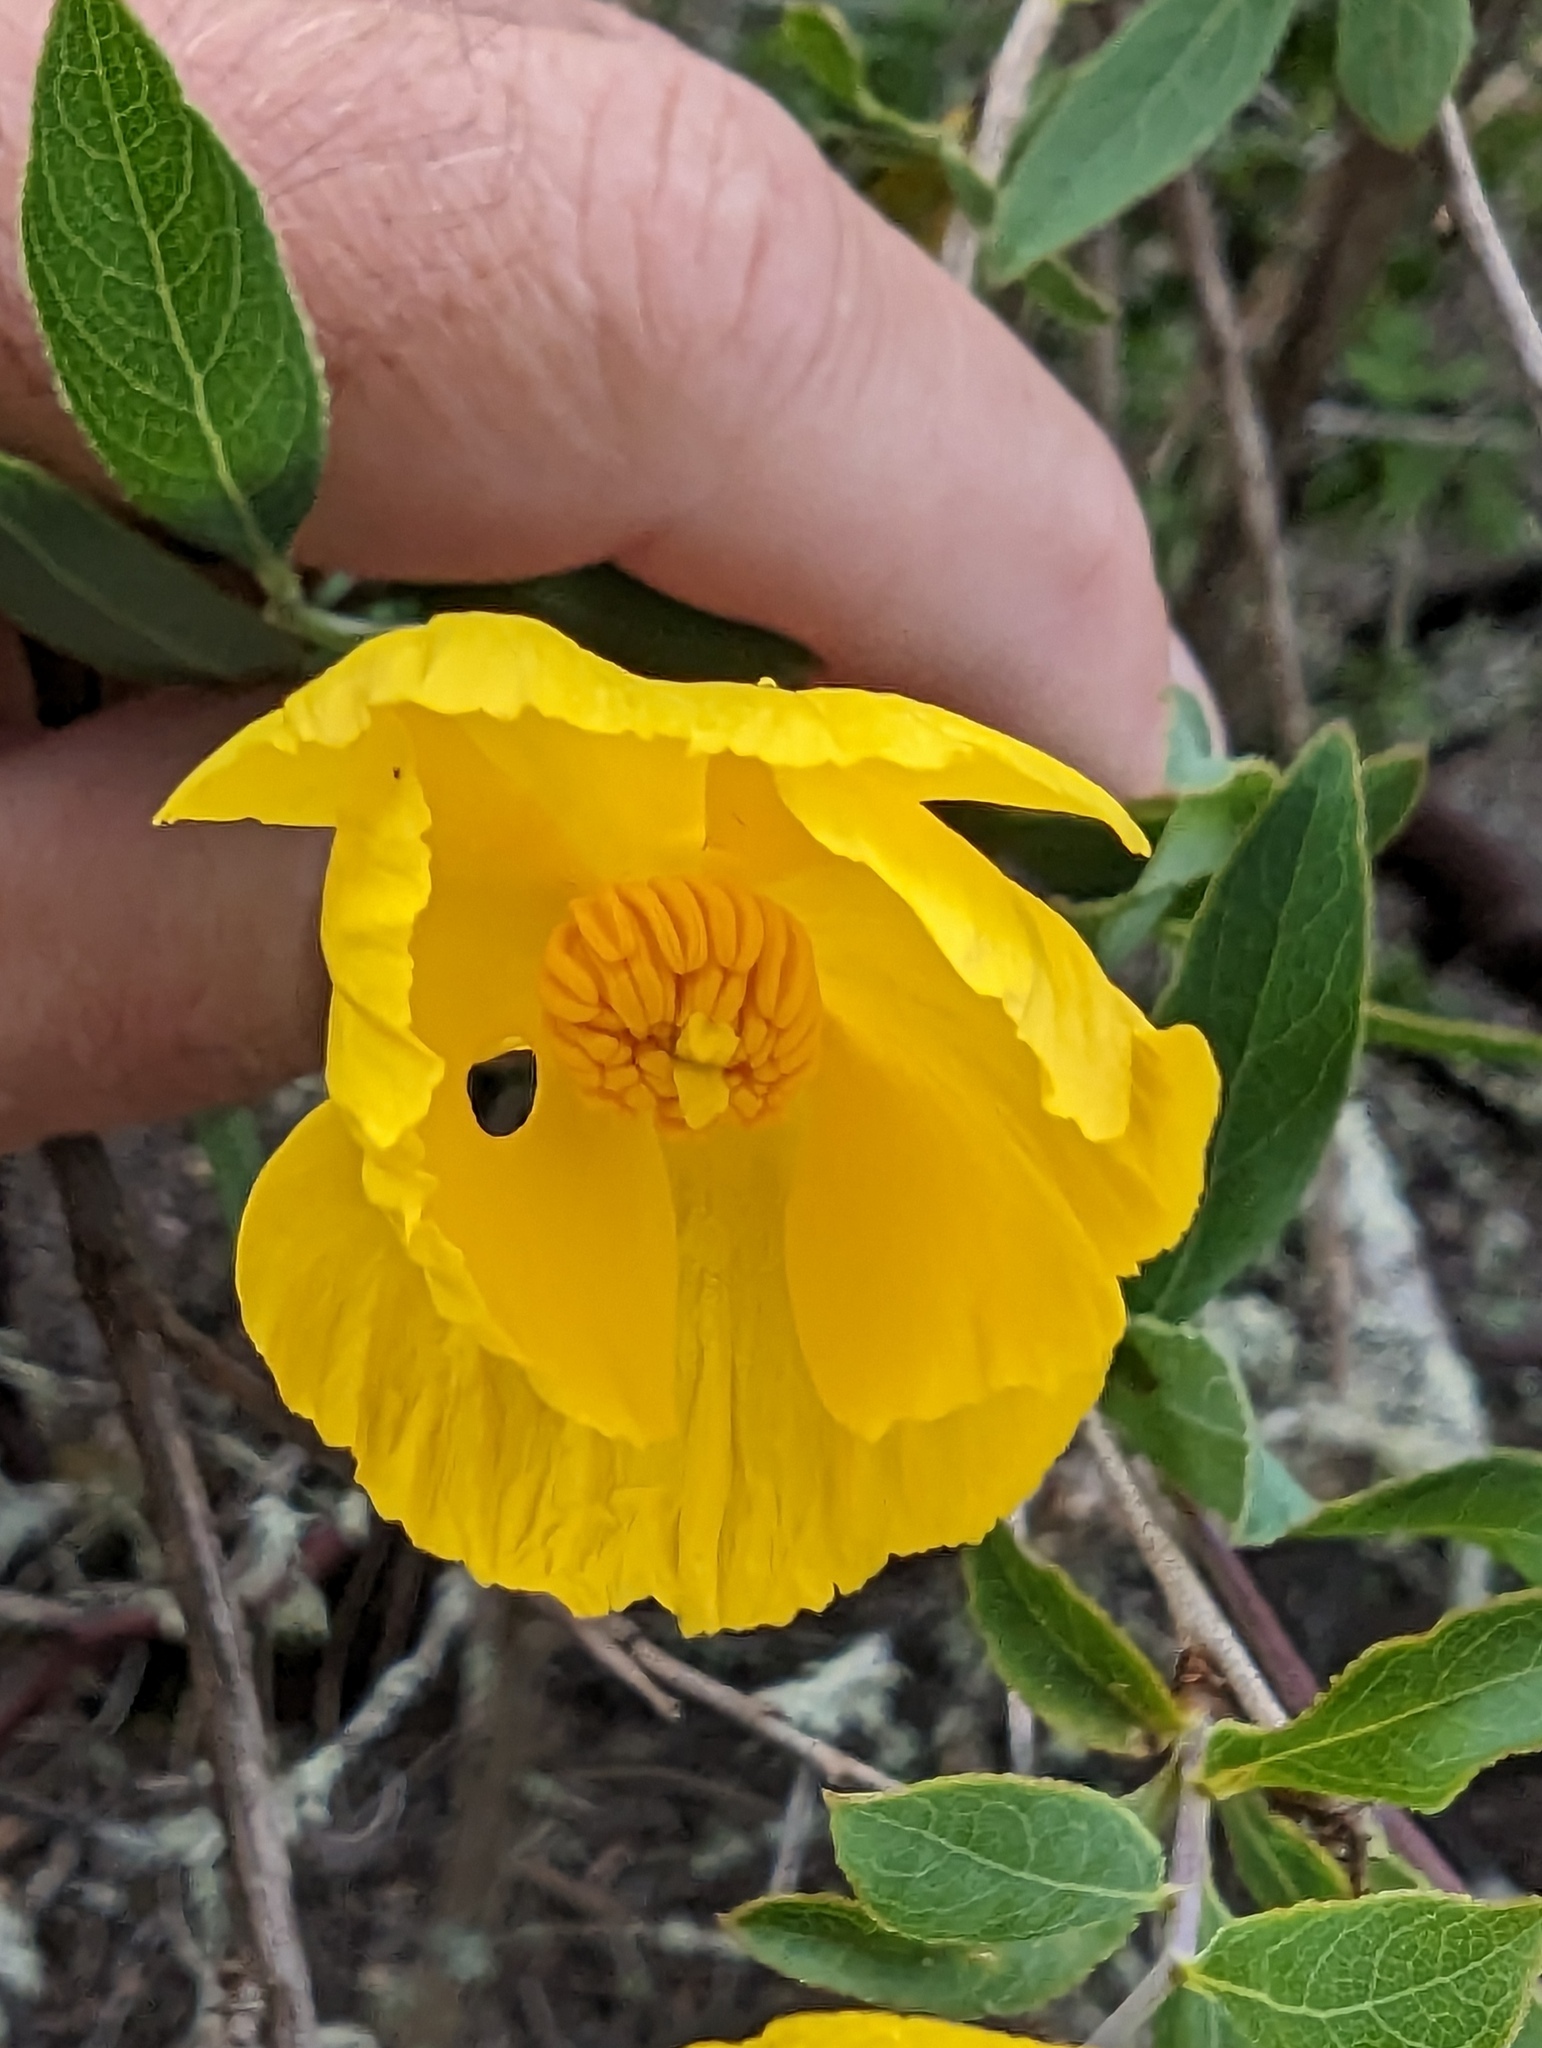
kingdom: Plantae
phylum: Tracheophyta
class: Magnoliopsida
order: Ranunculales
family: Papaveraceae
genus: Dendromecon
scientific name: Dendromecon rigida
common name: Tree poppy
